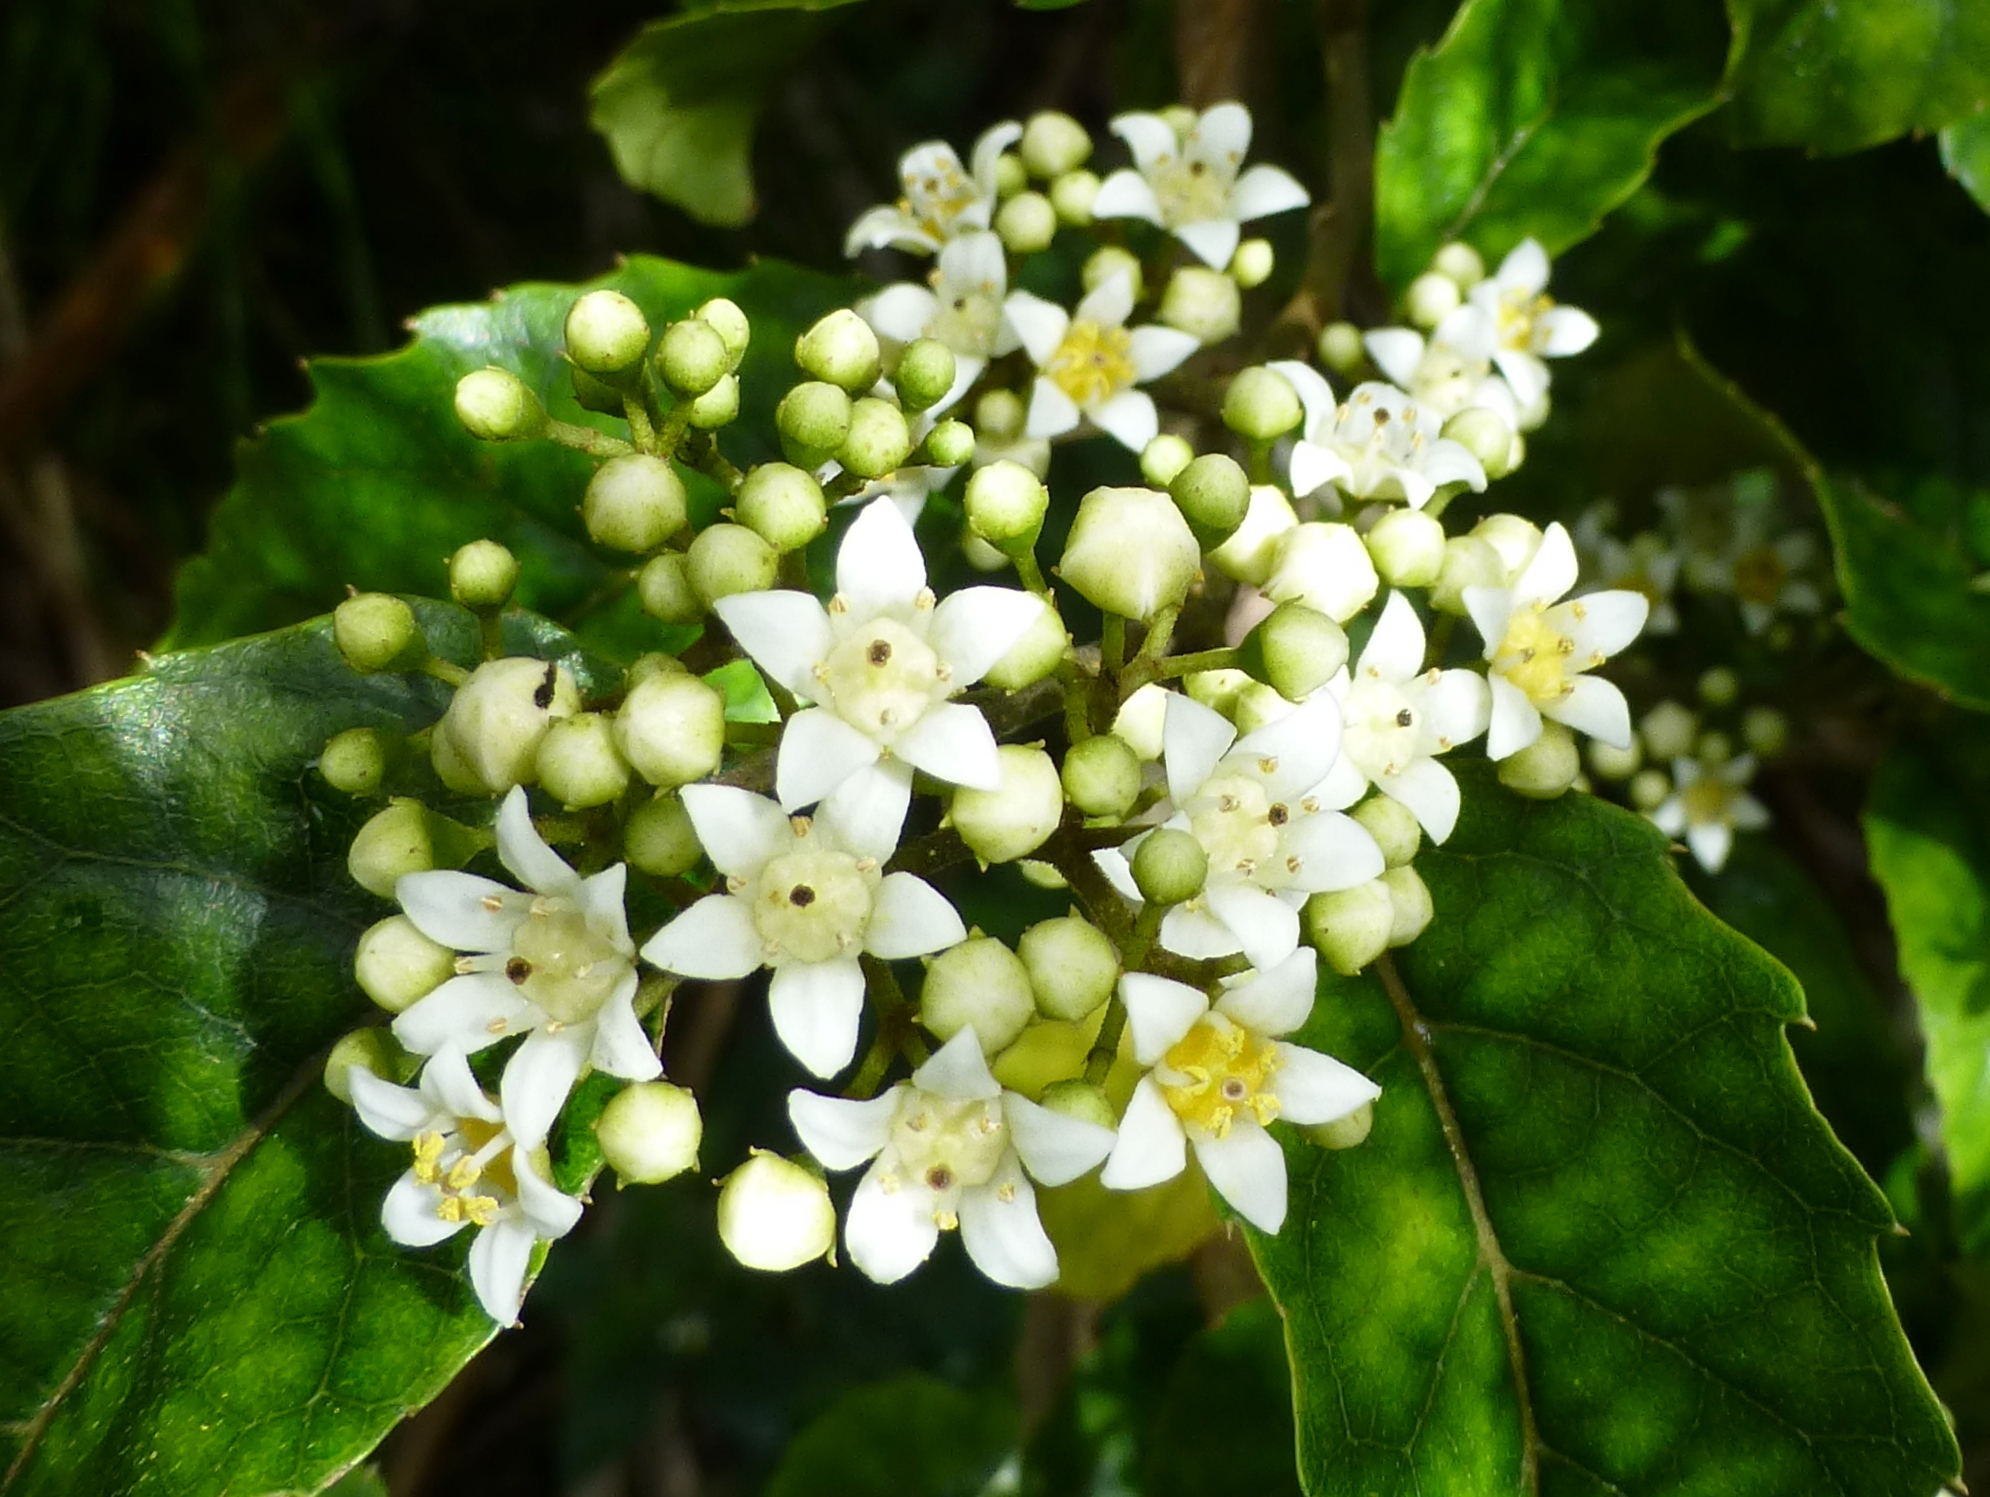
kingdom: Plantae
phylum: Tracheophyta
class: Magnoliopsida
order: Asterales
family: Rousseaceae
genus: Carpodetus
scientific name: Carpodetus serratus
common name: White mapau
